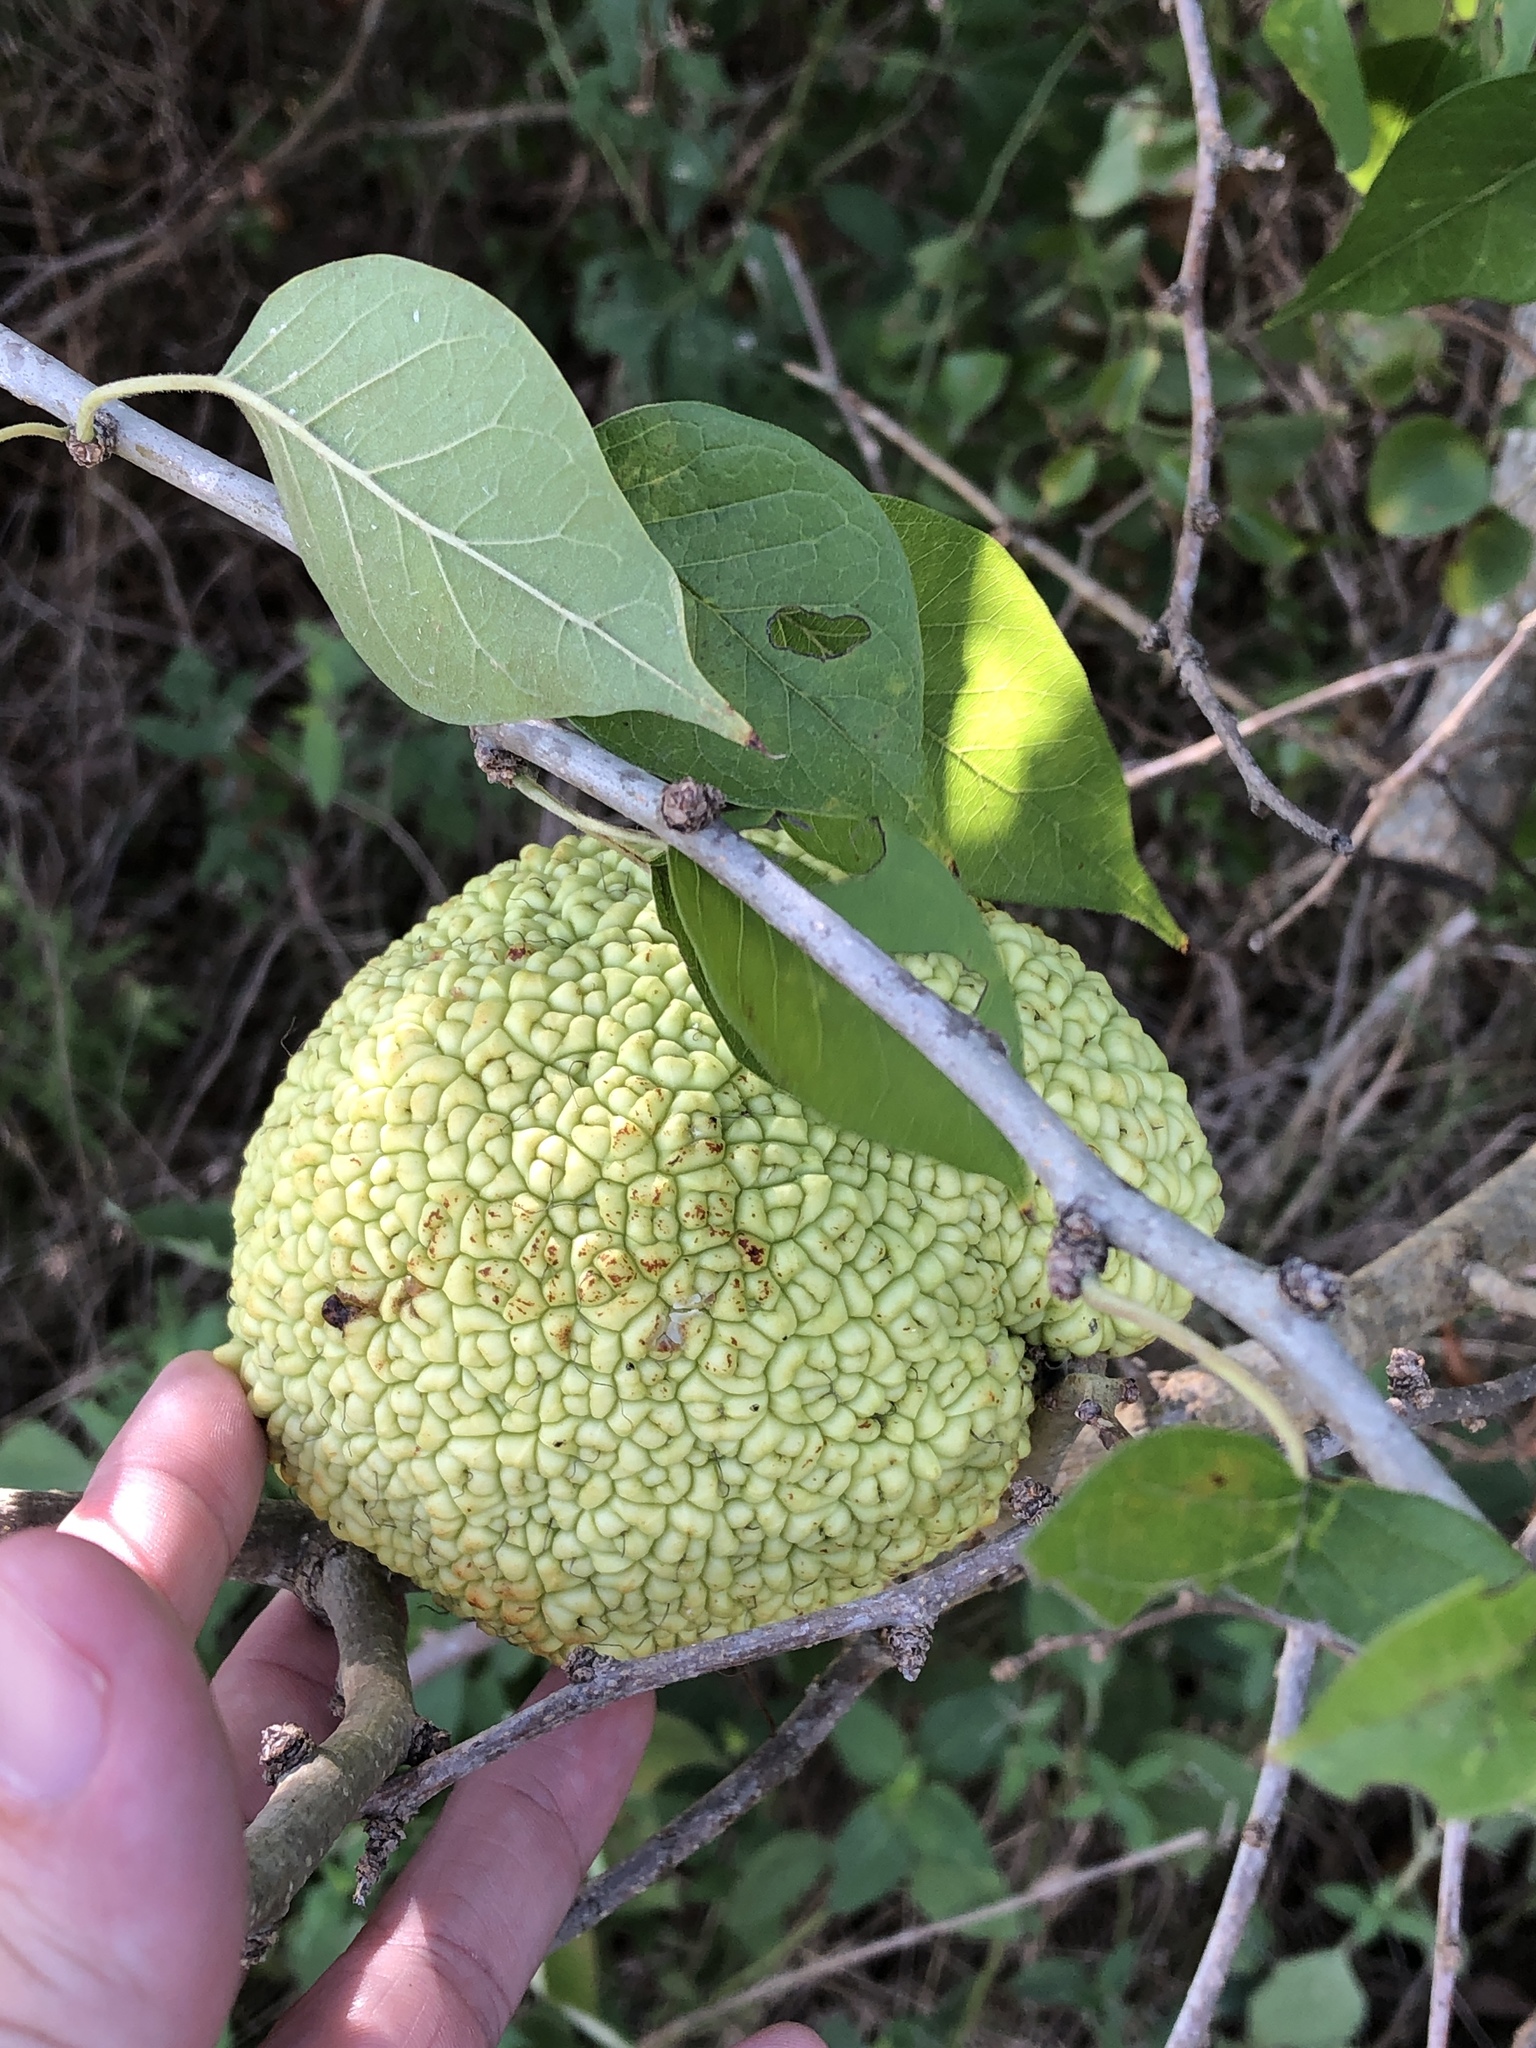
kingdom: Plantae
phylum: Tracheophyta
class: Magnoliopsida
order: Rosales
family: Moraceae
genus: Maclura
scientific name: Maclura pomifera
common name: Osage-orange
